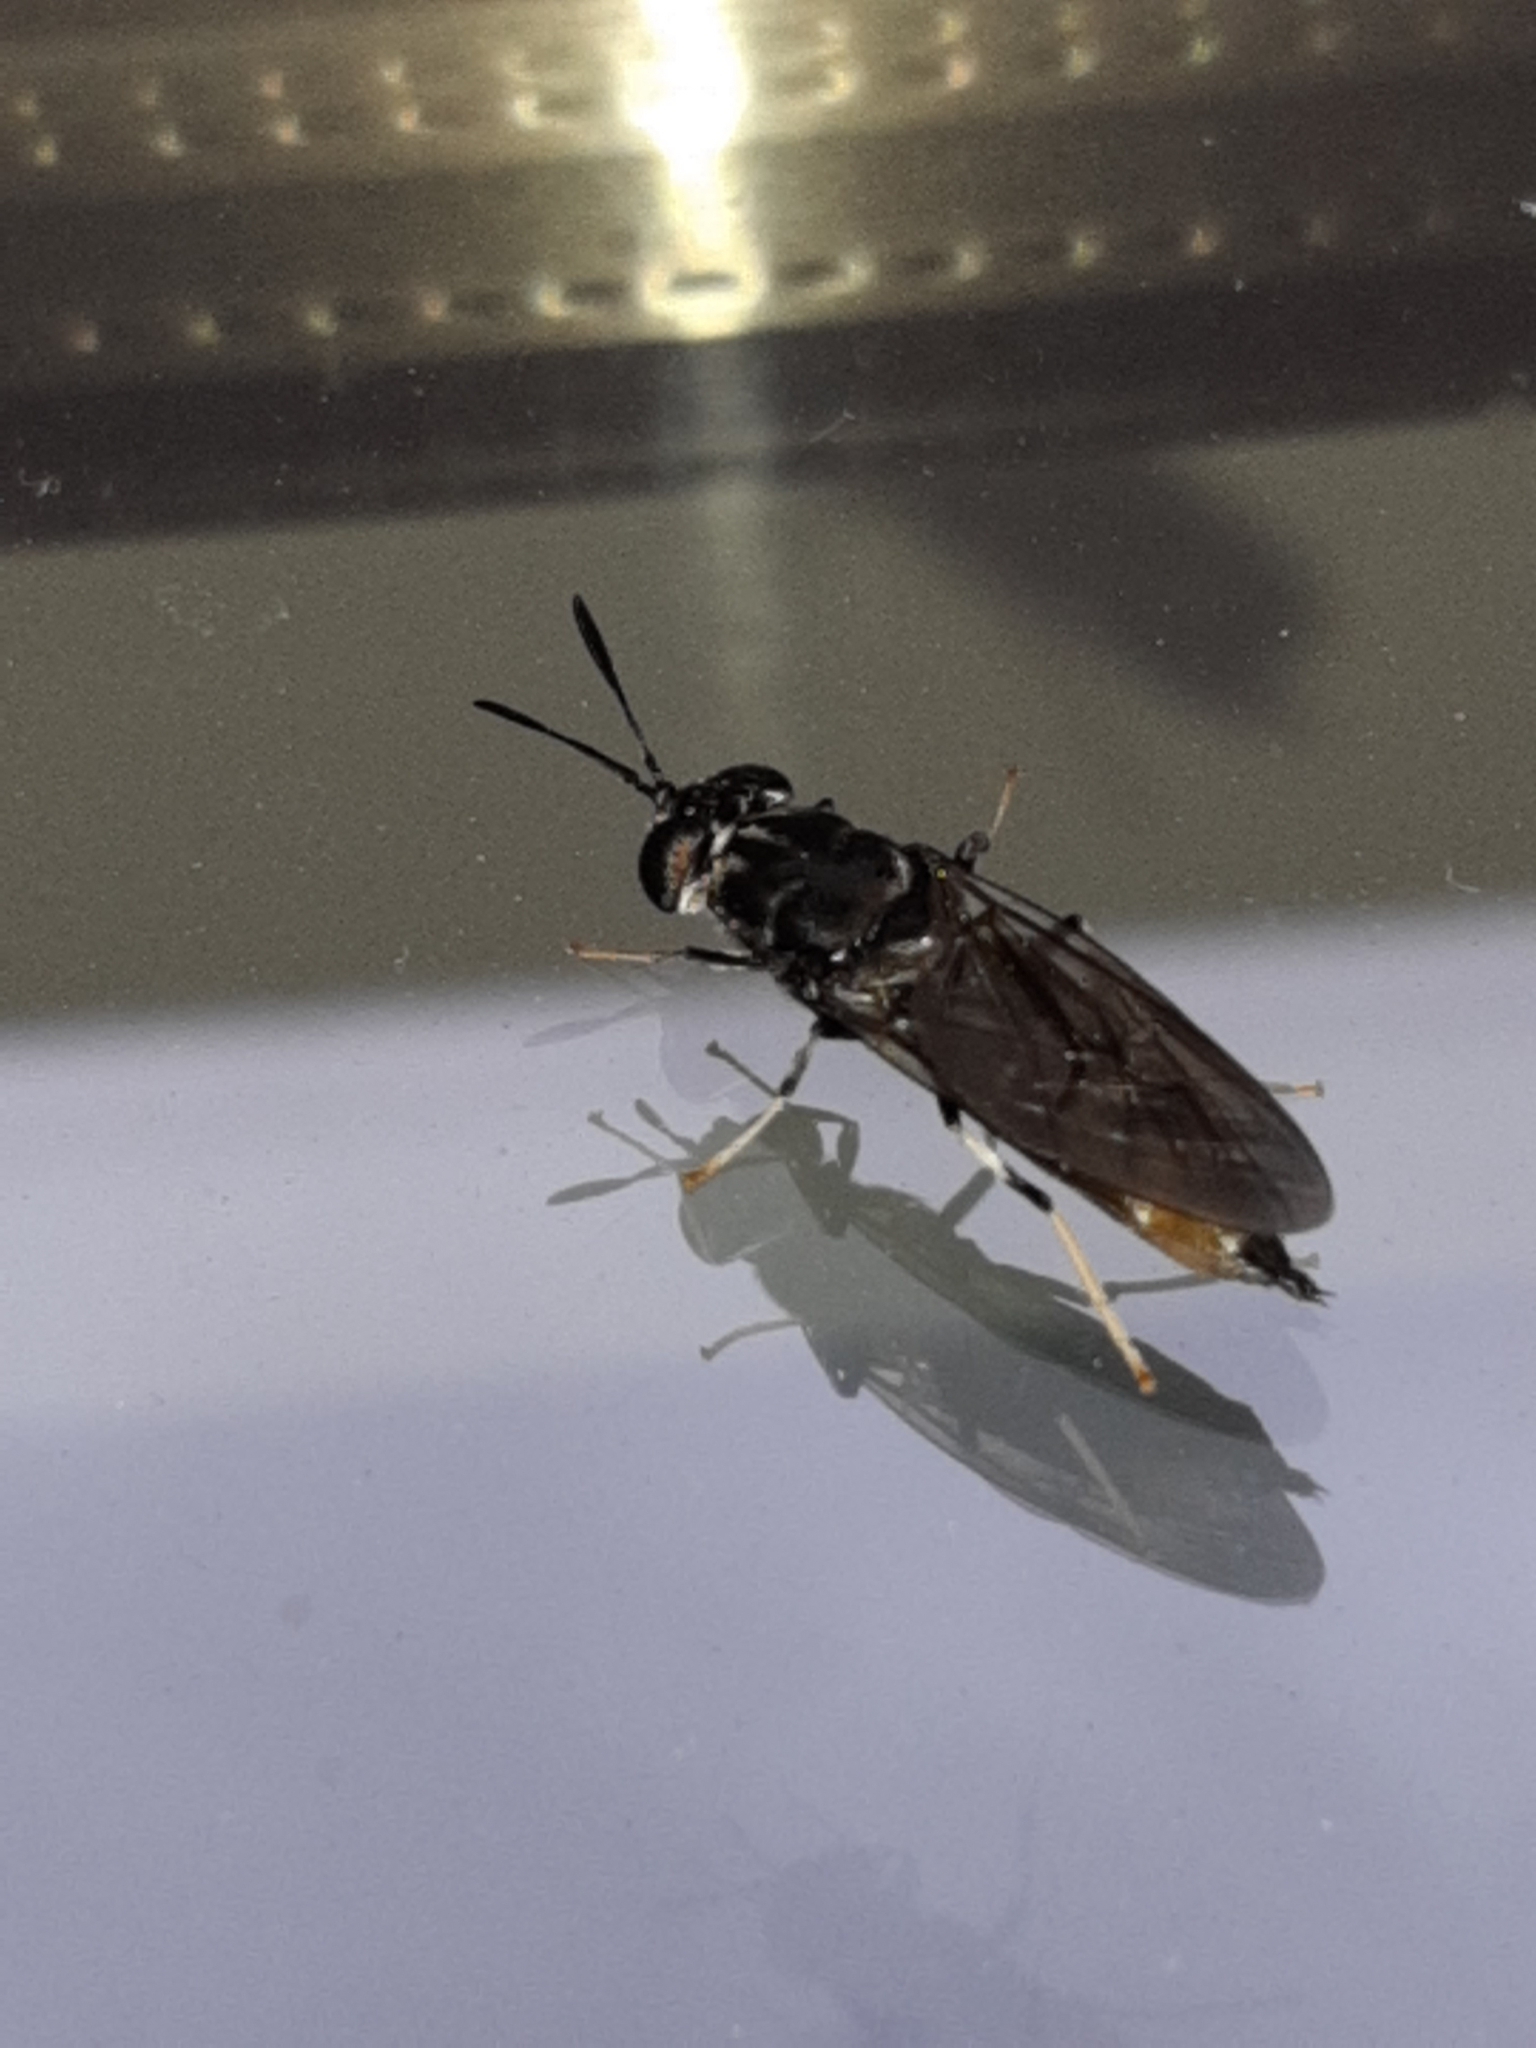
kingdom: Animalia
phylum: Arthropoda
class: Insecta
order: Diptera
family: Stratiomyidae
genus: Hermetia
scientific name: Hermetia illucens
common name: Black soldier fly
